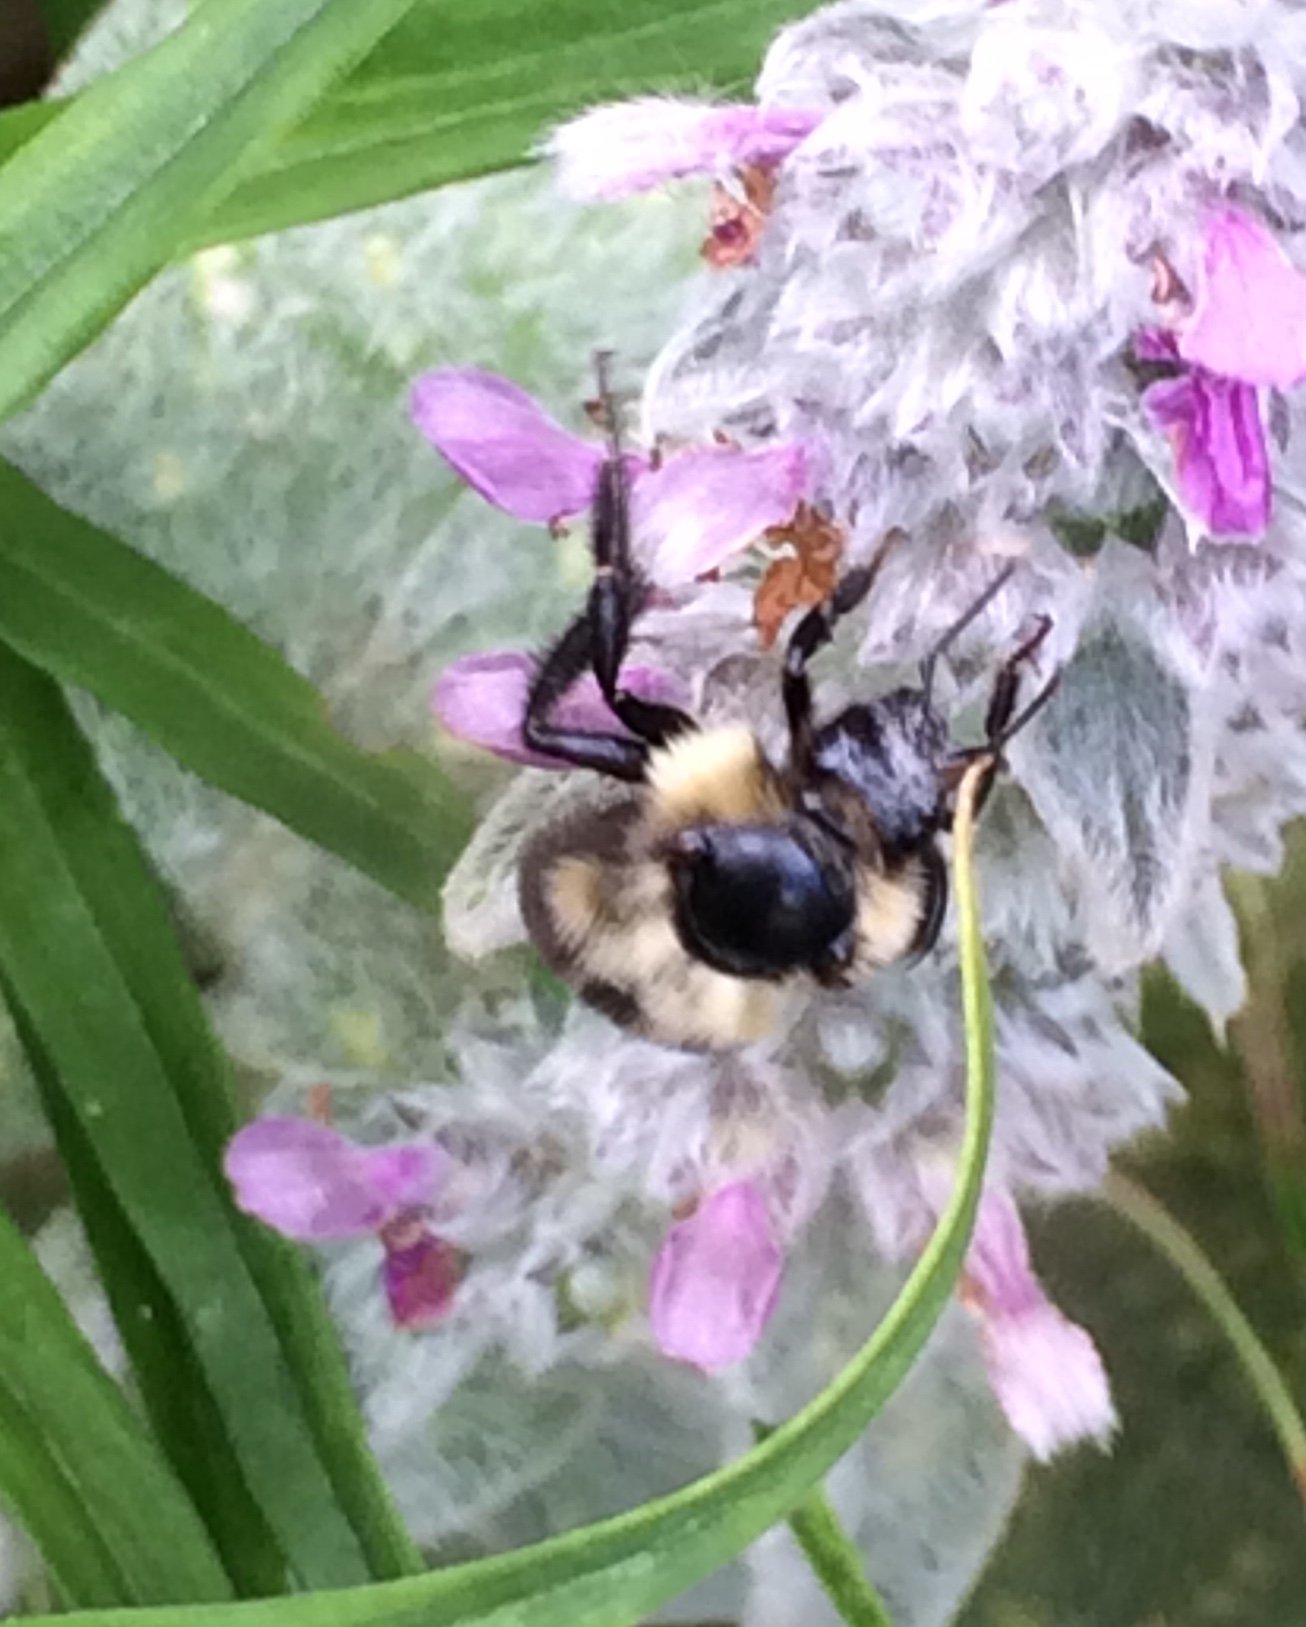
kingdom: Animalia
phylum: Arthropoda
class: Insecta
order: Hymenoptera
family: Apidae
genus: Bombus
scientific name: Bombus bimaculatus
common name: Two-spotted bumble bee
